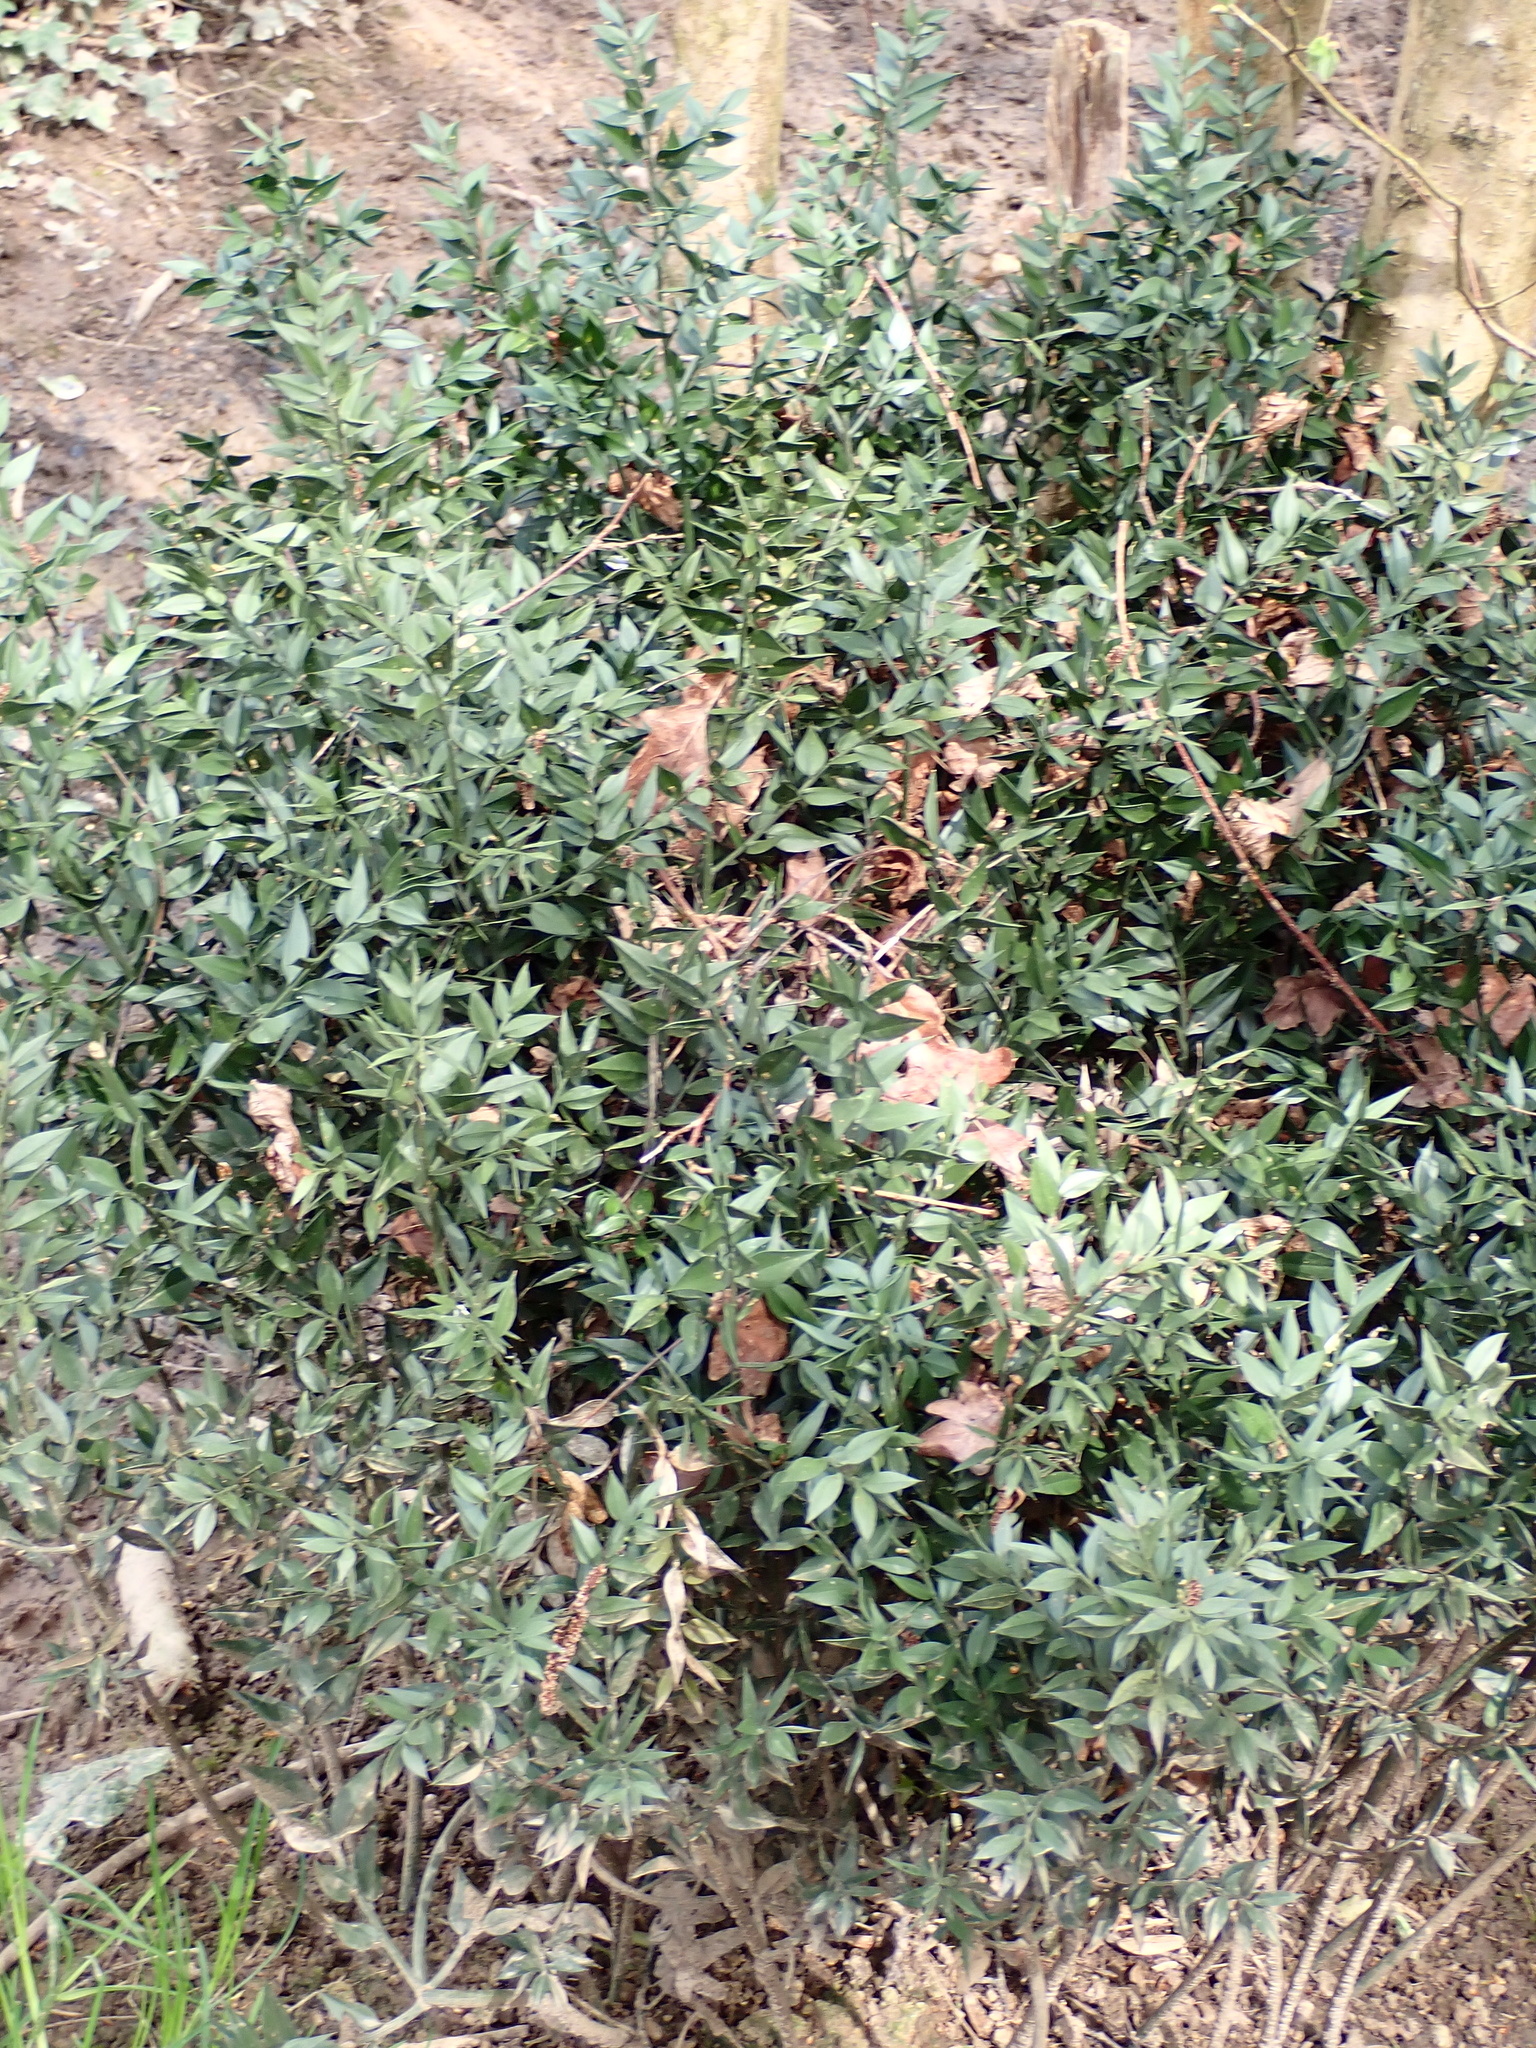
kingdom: Plantae
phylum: Tracheophyta
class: Liliopsida
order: Asparagales
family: Asparagaceae
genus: Ruscus
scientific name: Ruscus aculeatus
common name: Butcher's-broom
